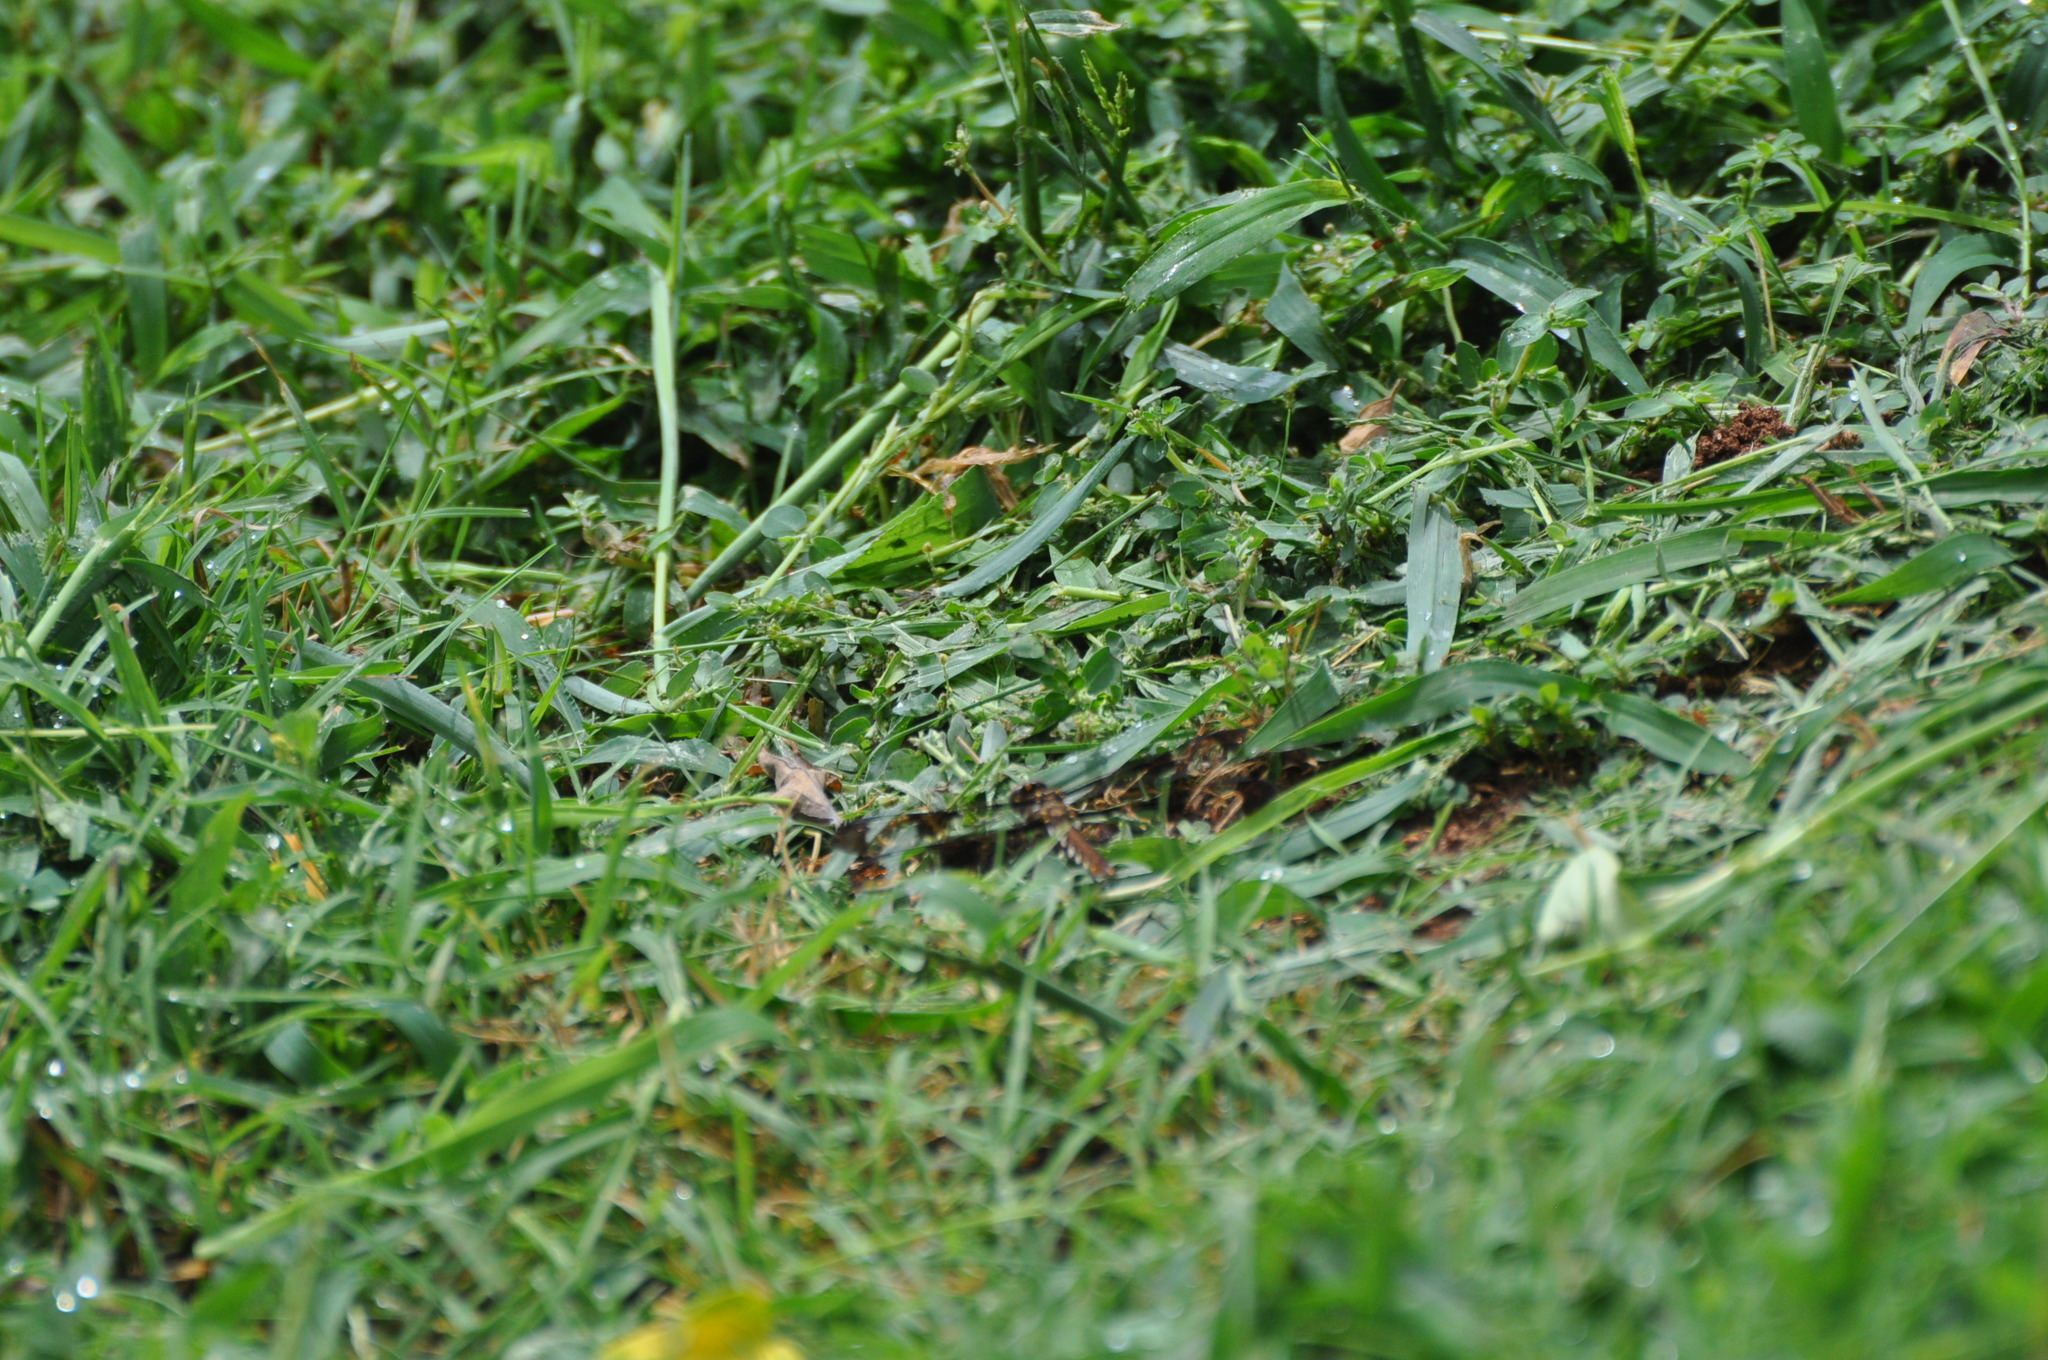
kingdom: Animalia
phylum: Arthropoda
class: Insecta
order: Odonata
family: Libellulidae
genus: Plathemis
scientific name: Plathemis lydia
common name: Common whitetail
